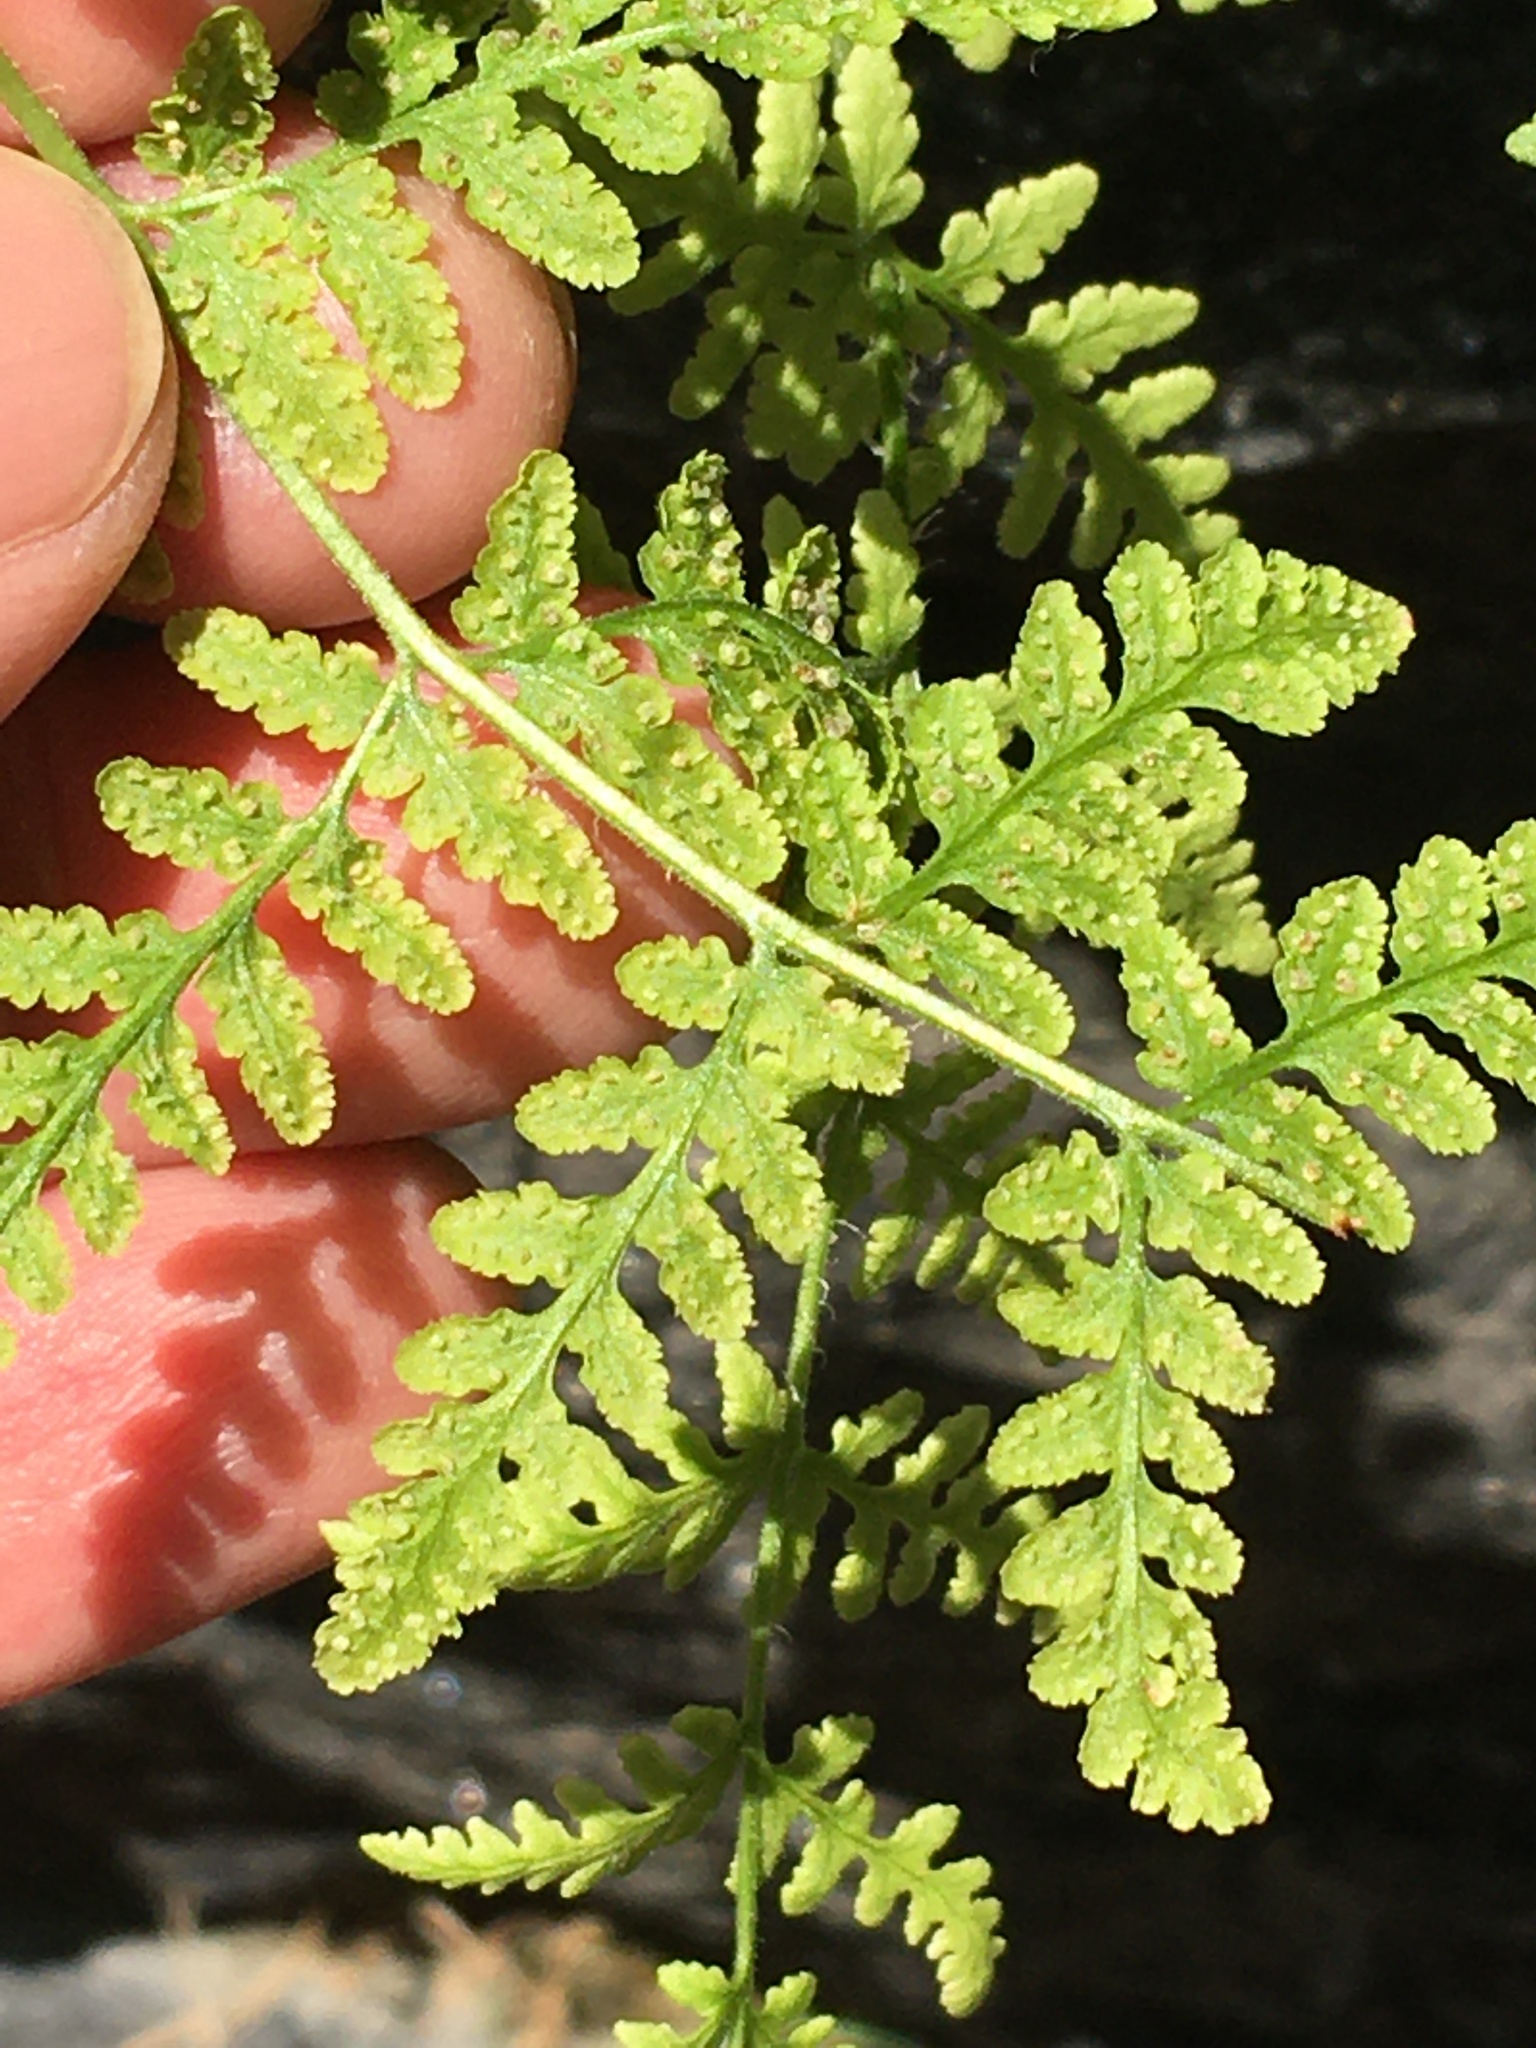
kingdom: Plantae
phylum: Tracheophyta
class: Polypodiopsida
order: Polypodiales
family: Woodsiaceae
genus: Physematium
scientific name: Physematium obtusum
